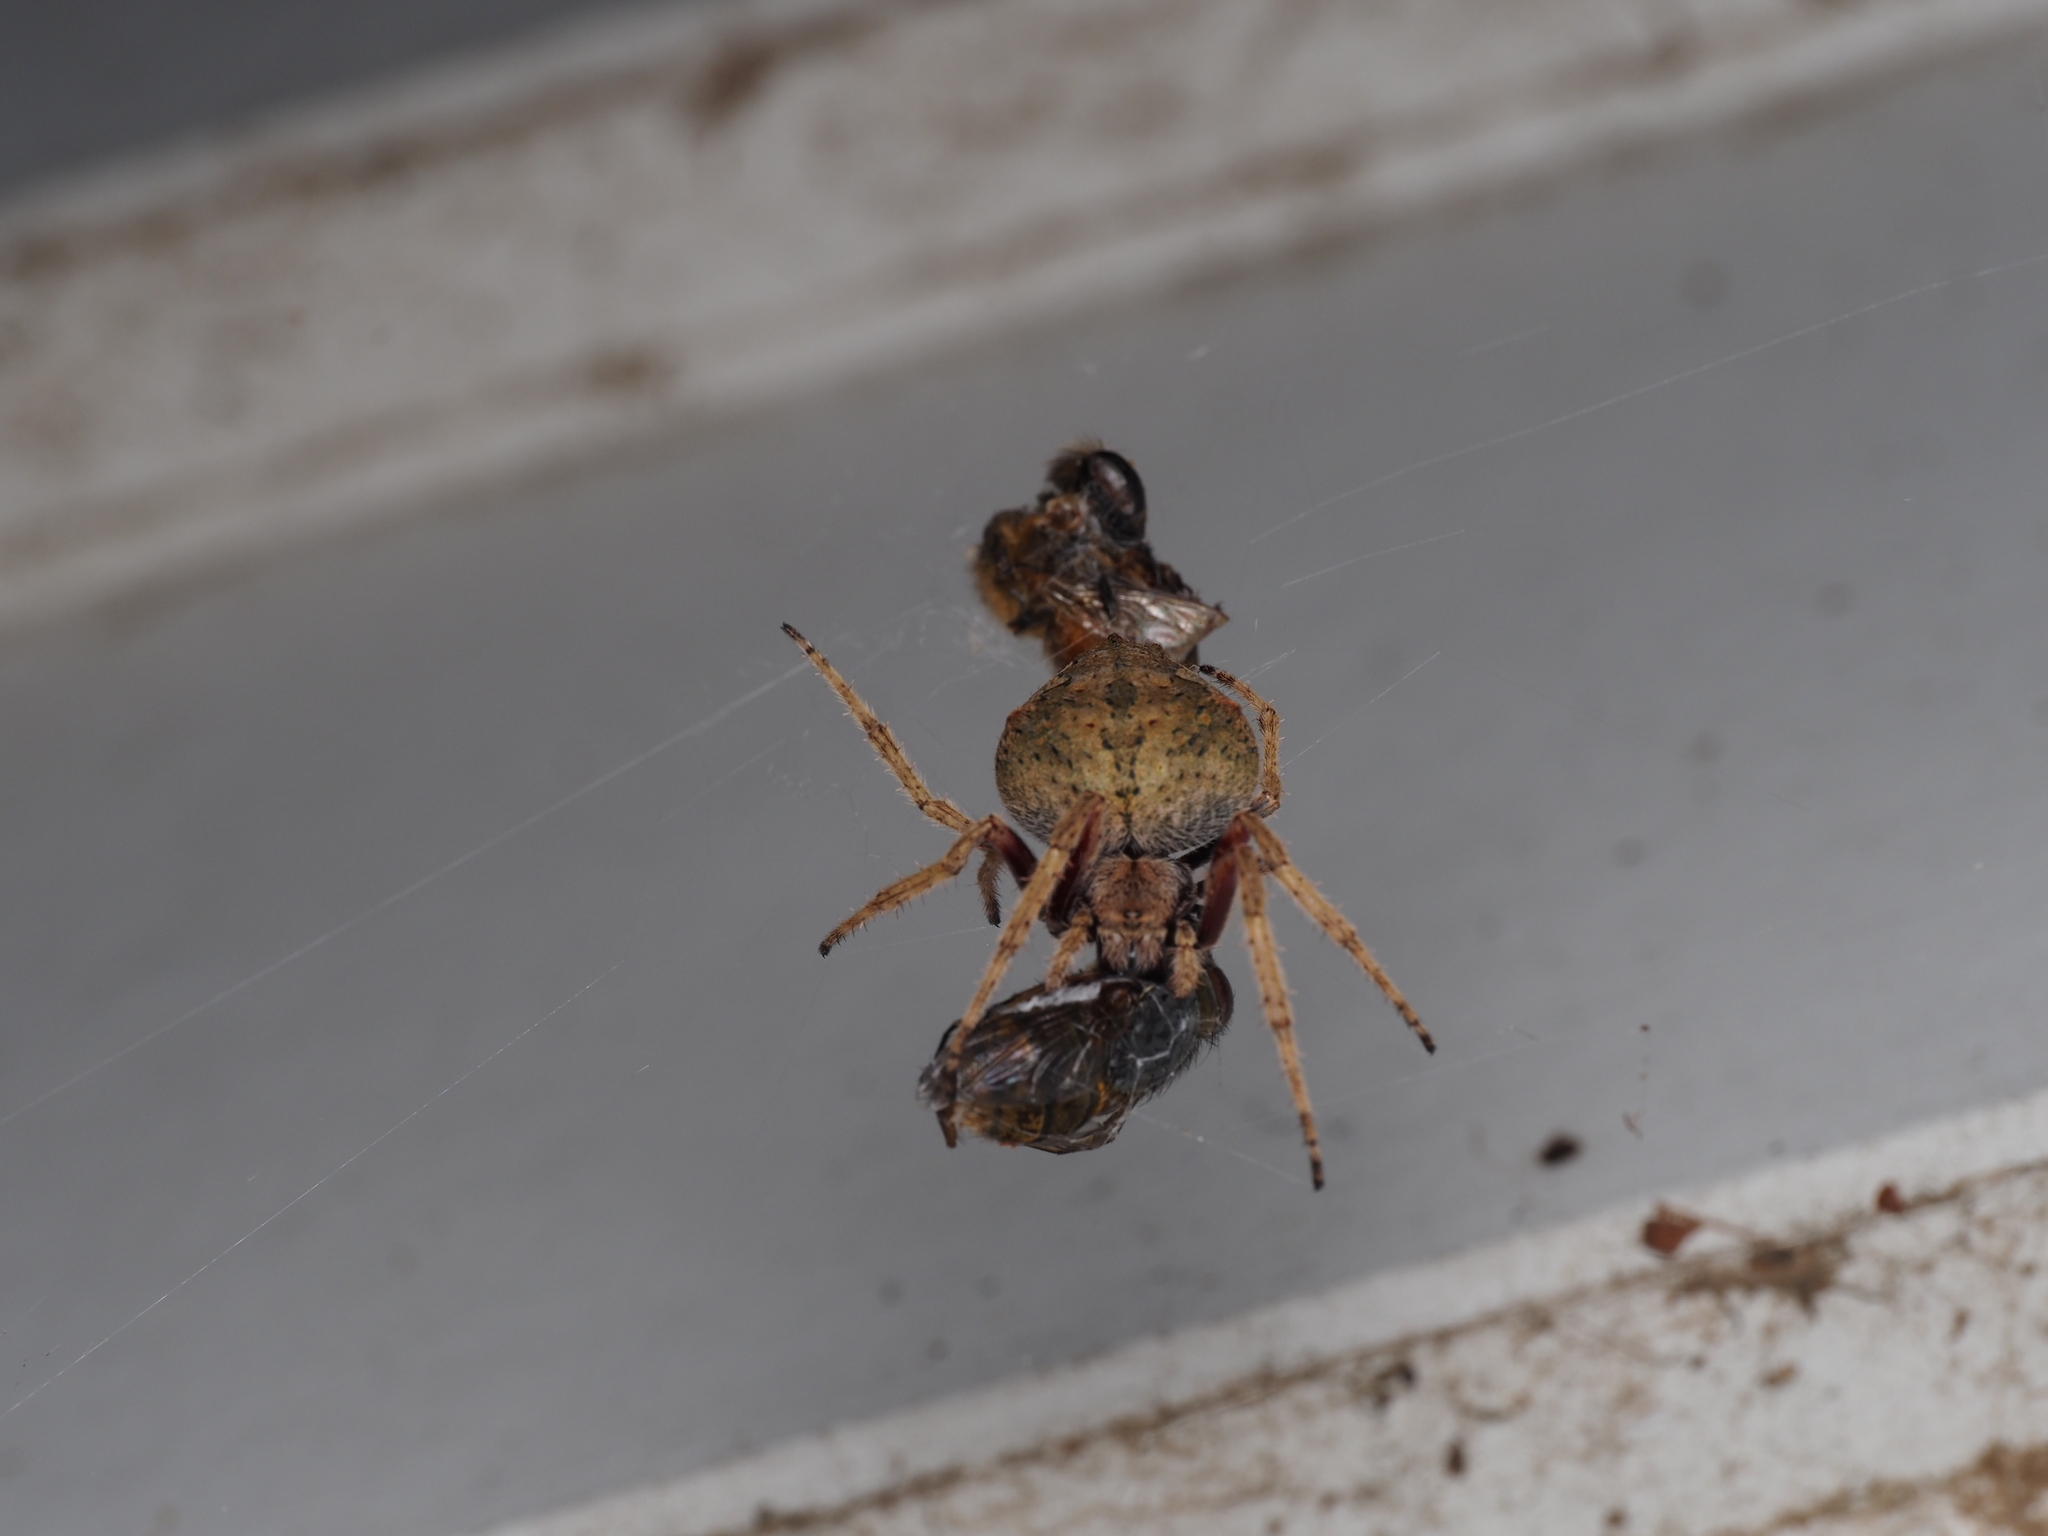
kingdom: Animalia
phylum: Arthropoda
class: Arachnida
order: Araneae
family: Araneidae
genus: Eriophora
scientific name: Eriophora pustulosa
